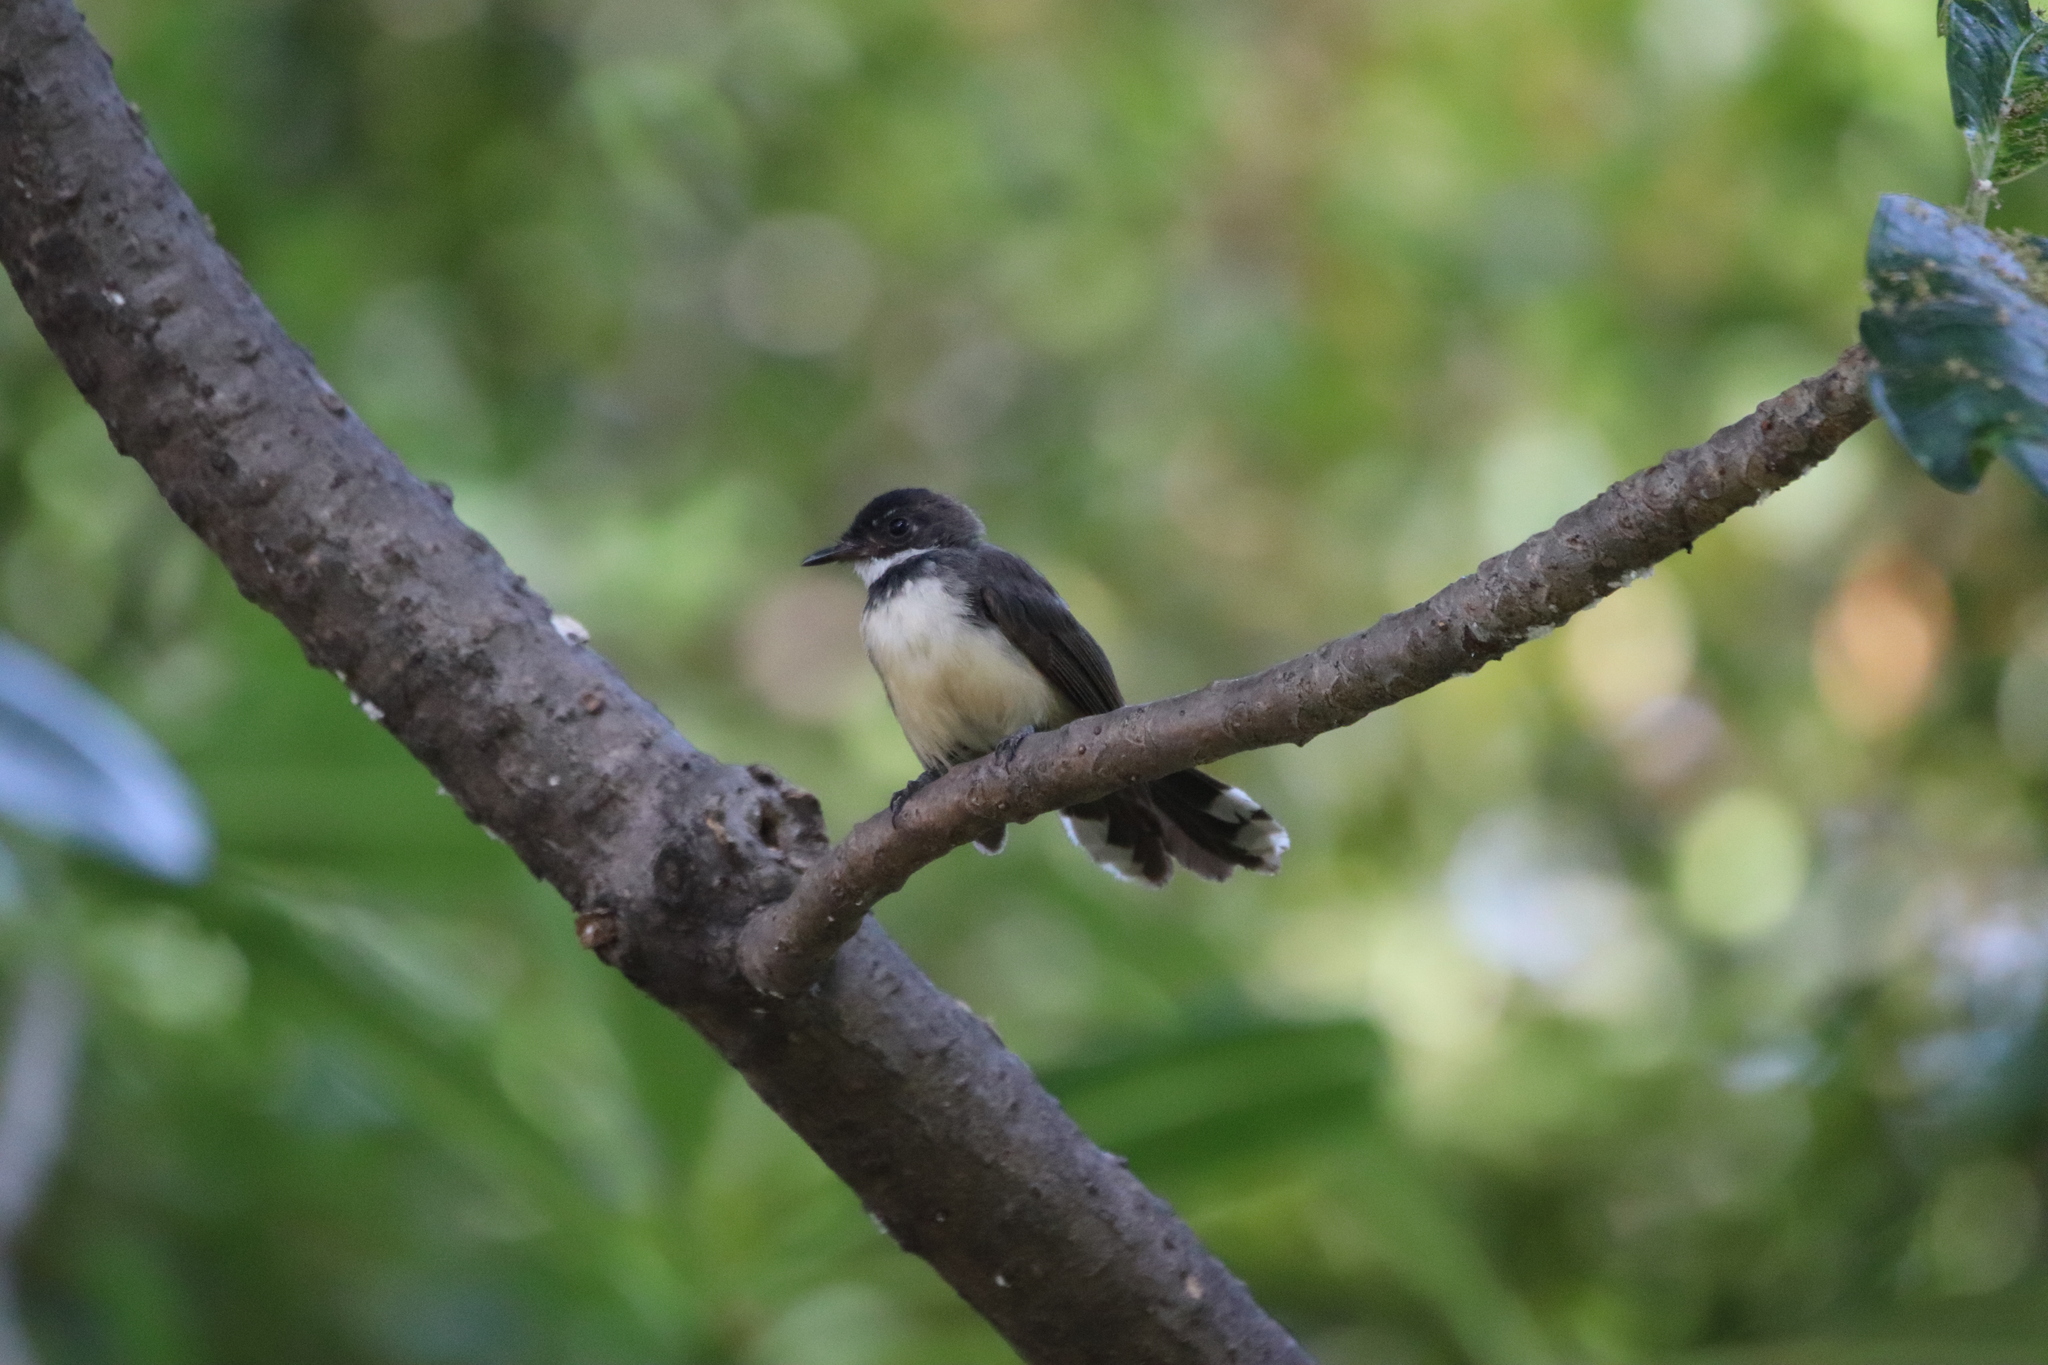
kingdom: Animalia
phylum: Chordata
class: Aves
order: Passeriformes
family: Rhipiduridae
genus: Rhipidura
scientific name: Rhipidura javanica
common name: Pied fantail
